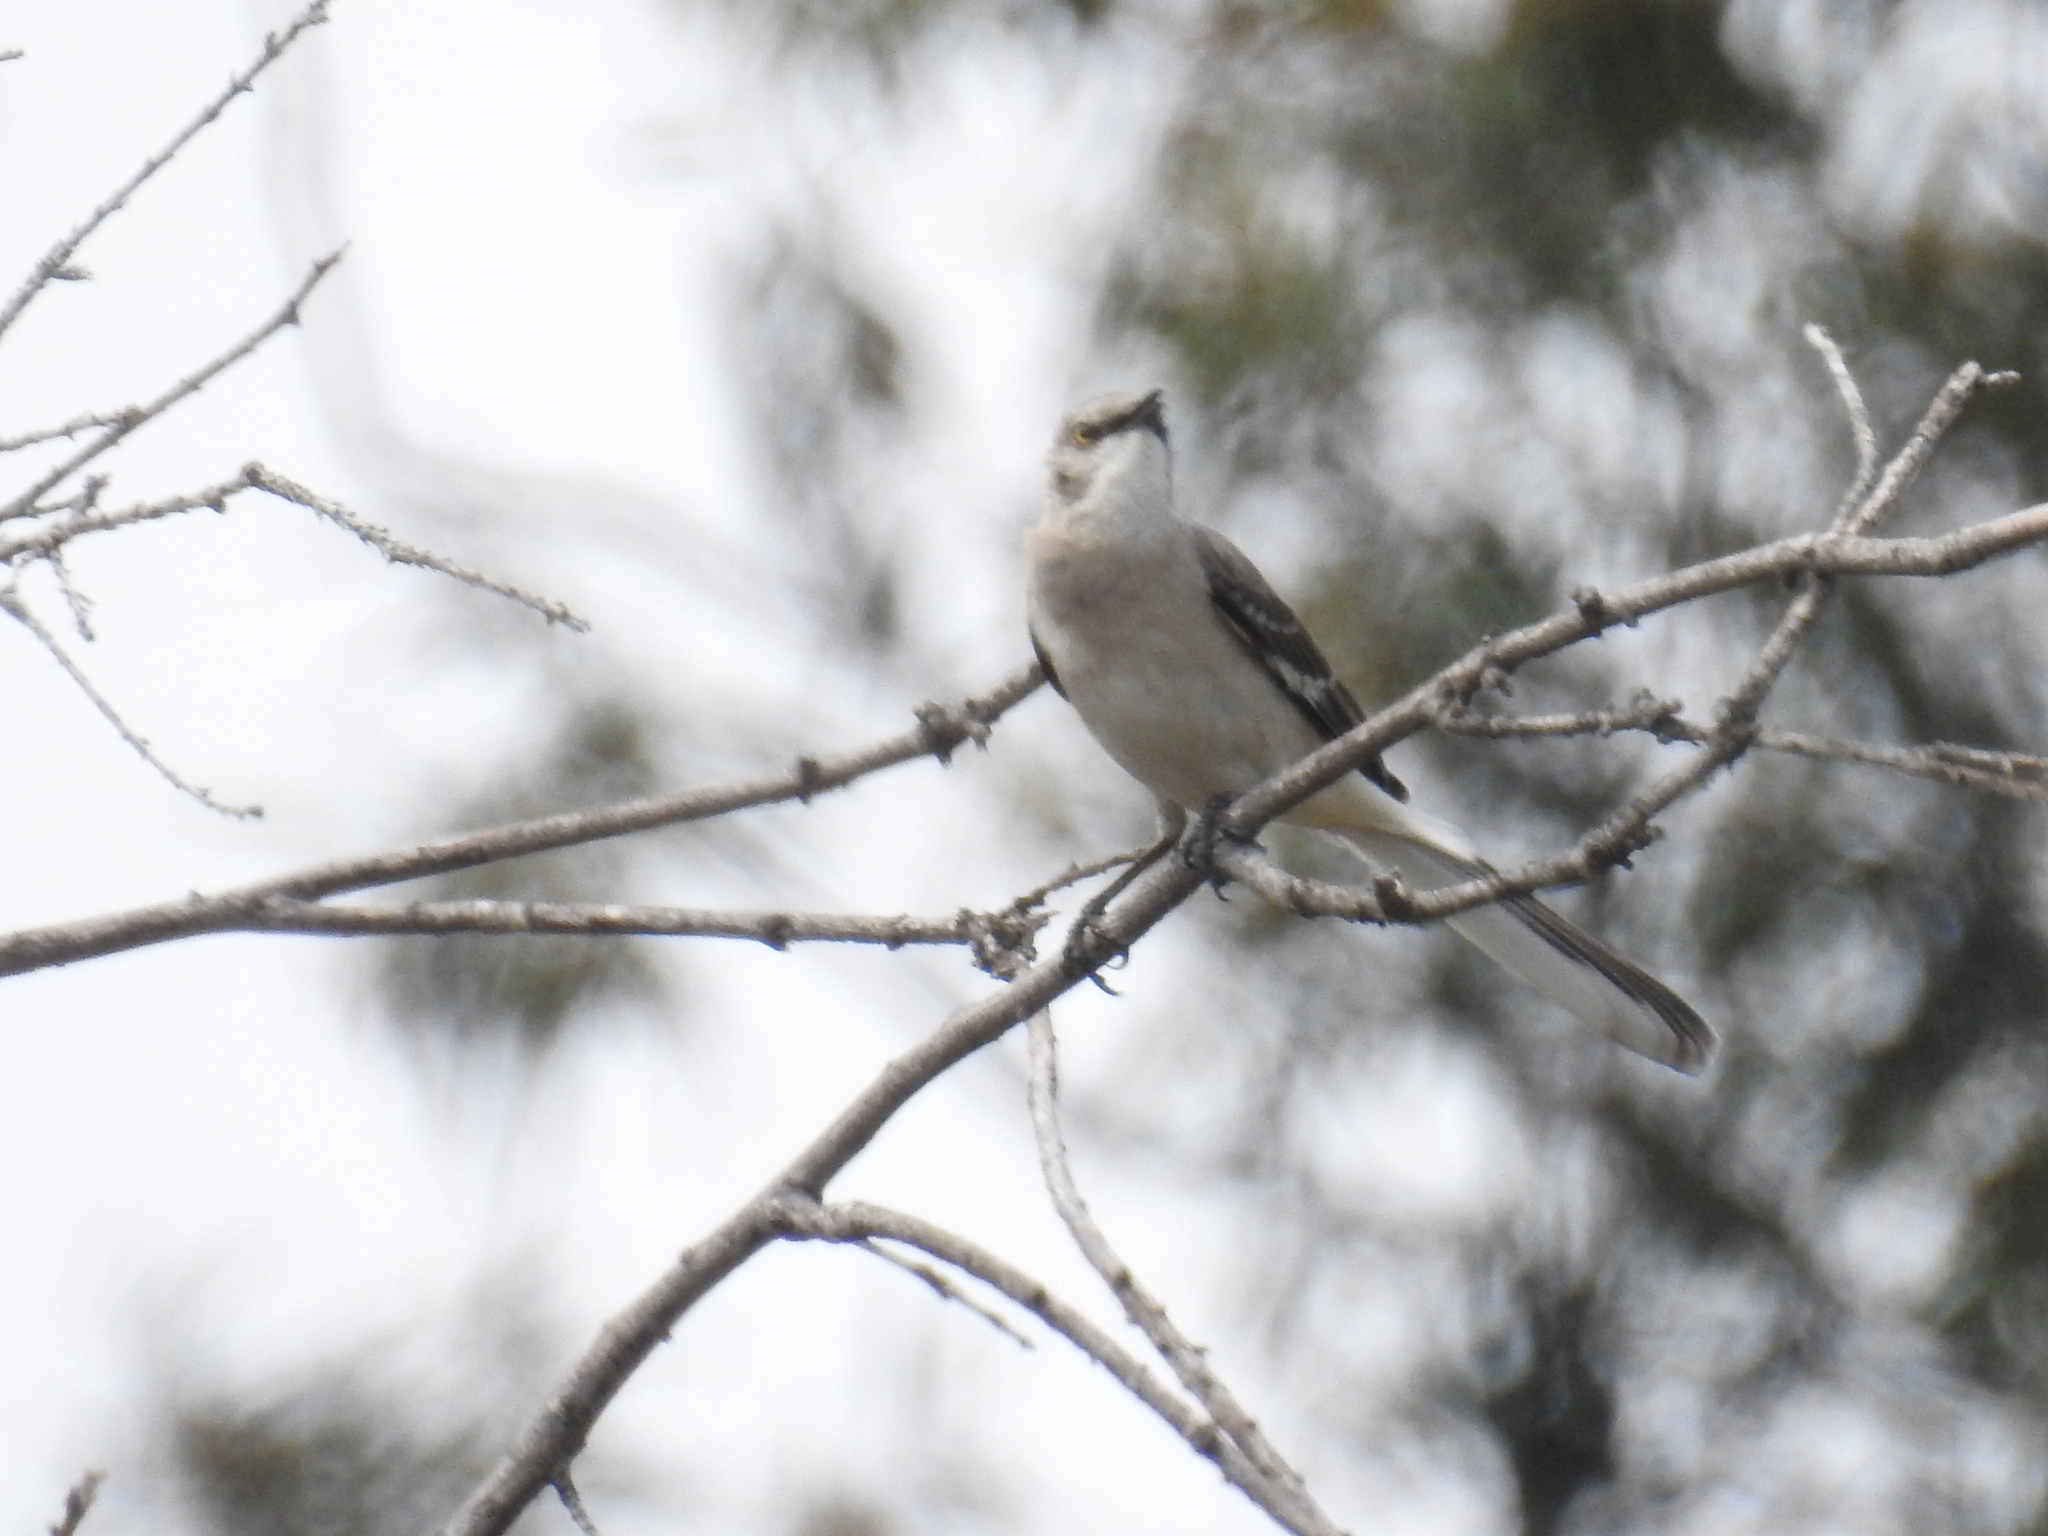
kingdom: Animalia
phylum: Chordata
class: Aves
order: Passeriformes
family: Mimidae
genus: Mimus
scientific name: Mimus polyglottos
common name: Northern mockingbird
